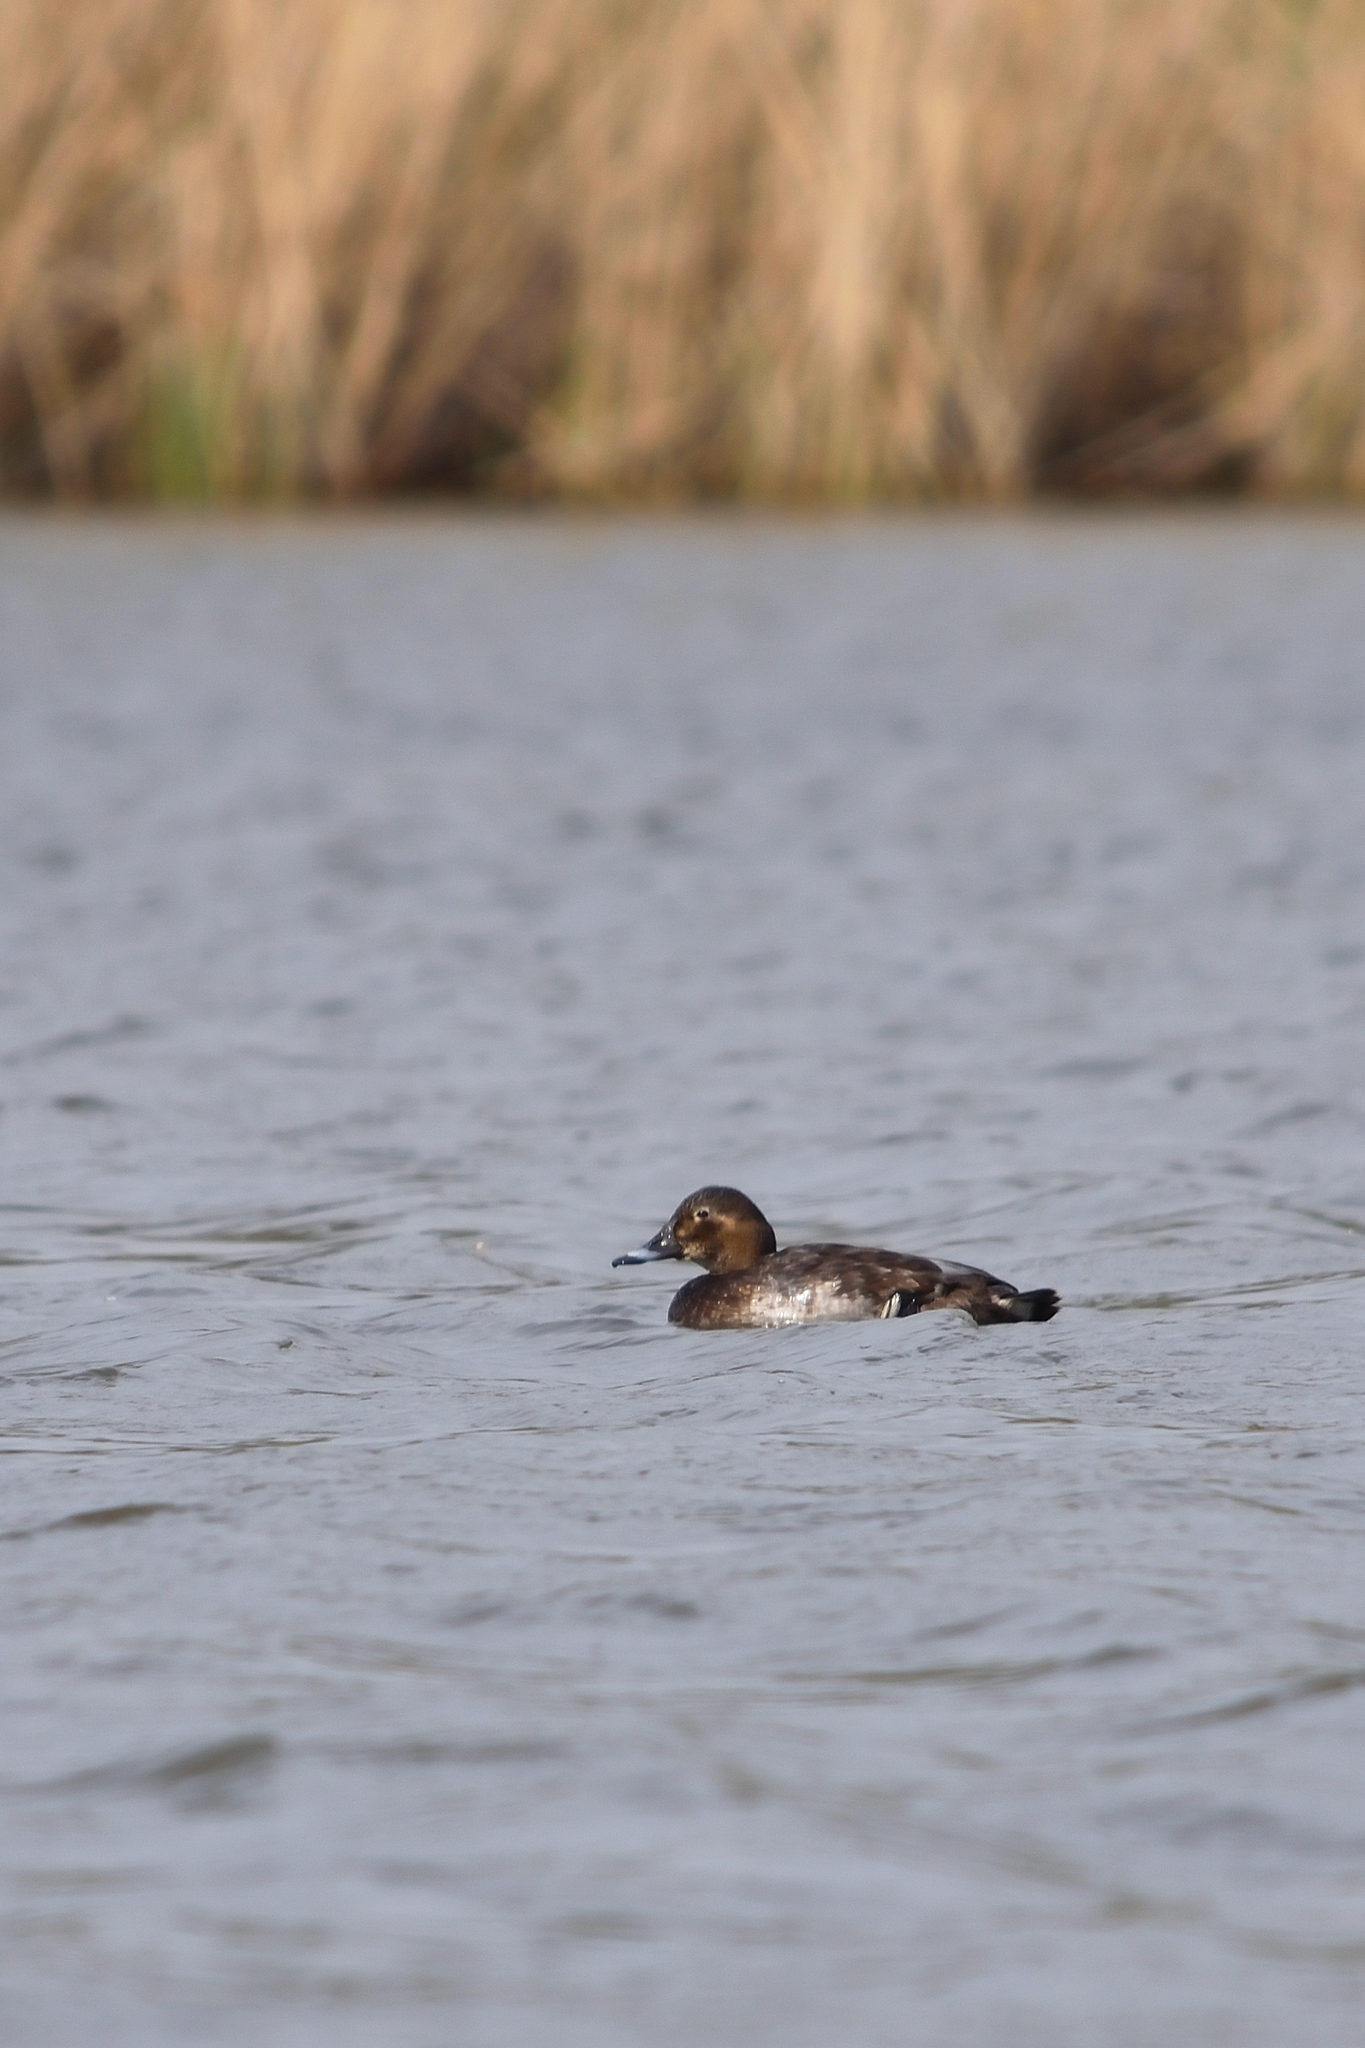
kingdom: Animalia
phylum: Chordata
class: Aves
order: Anseriformes
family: Anatidae
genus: Aythya
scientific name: Aythya ferina
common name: Common pochard
